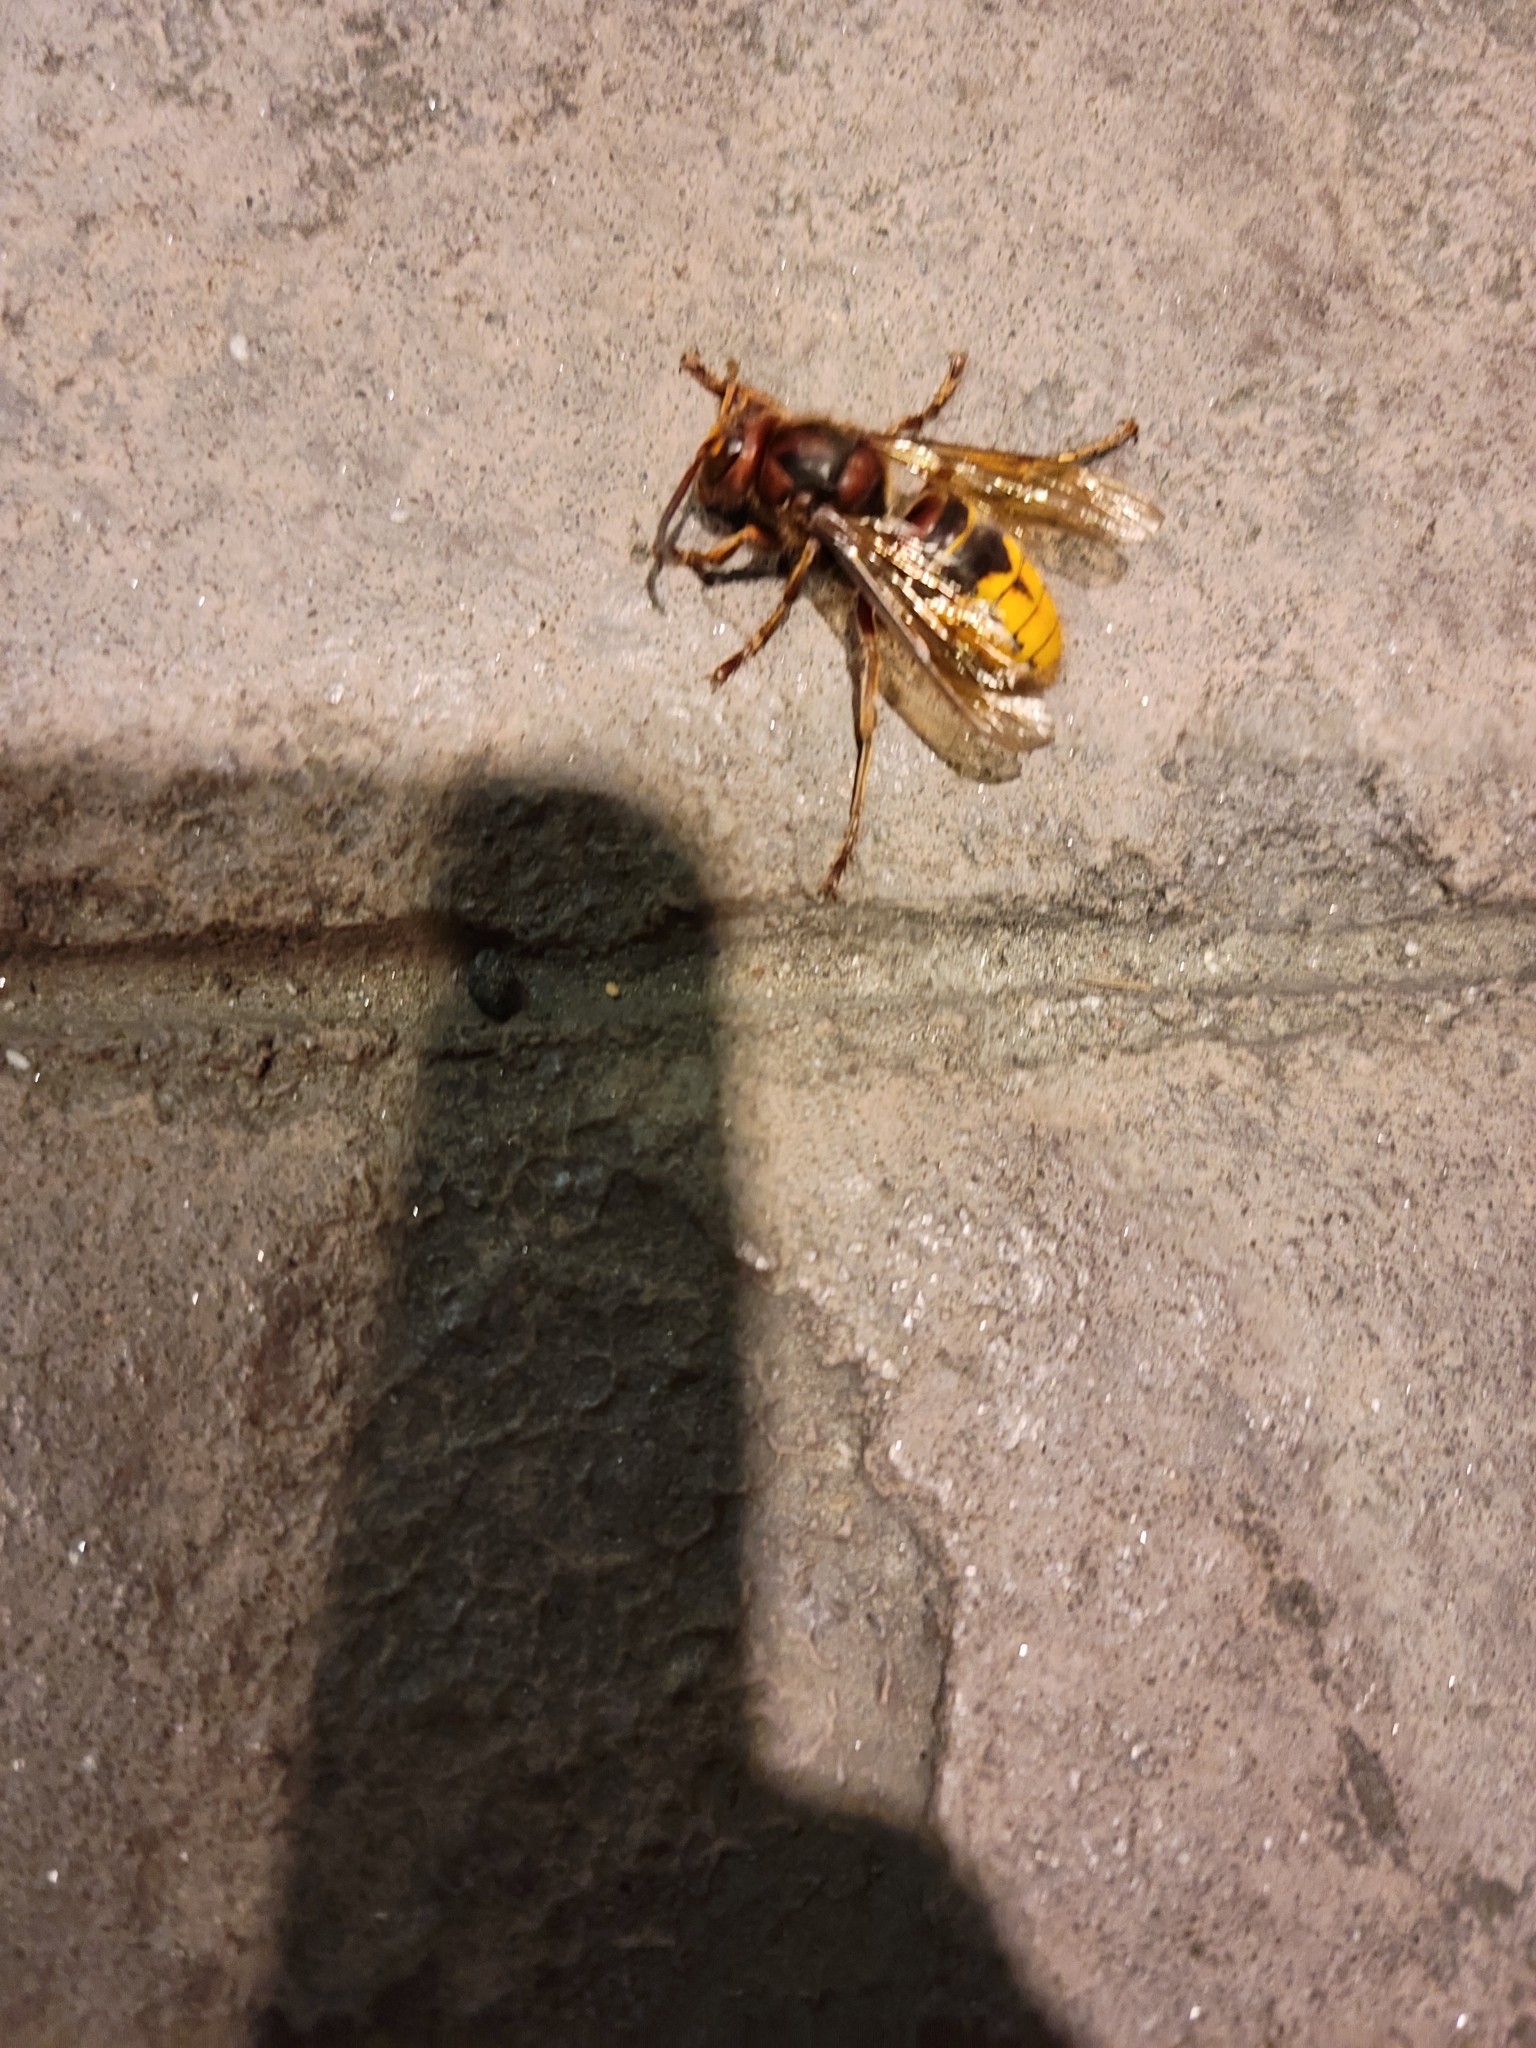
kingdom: Animalia
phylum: Arthropoda
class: Insecta
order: Hymenoptera
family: Vespidae
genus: Vespa
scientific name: Vespa crabro
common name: Hornet
